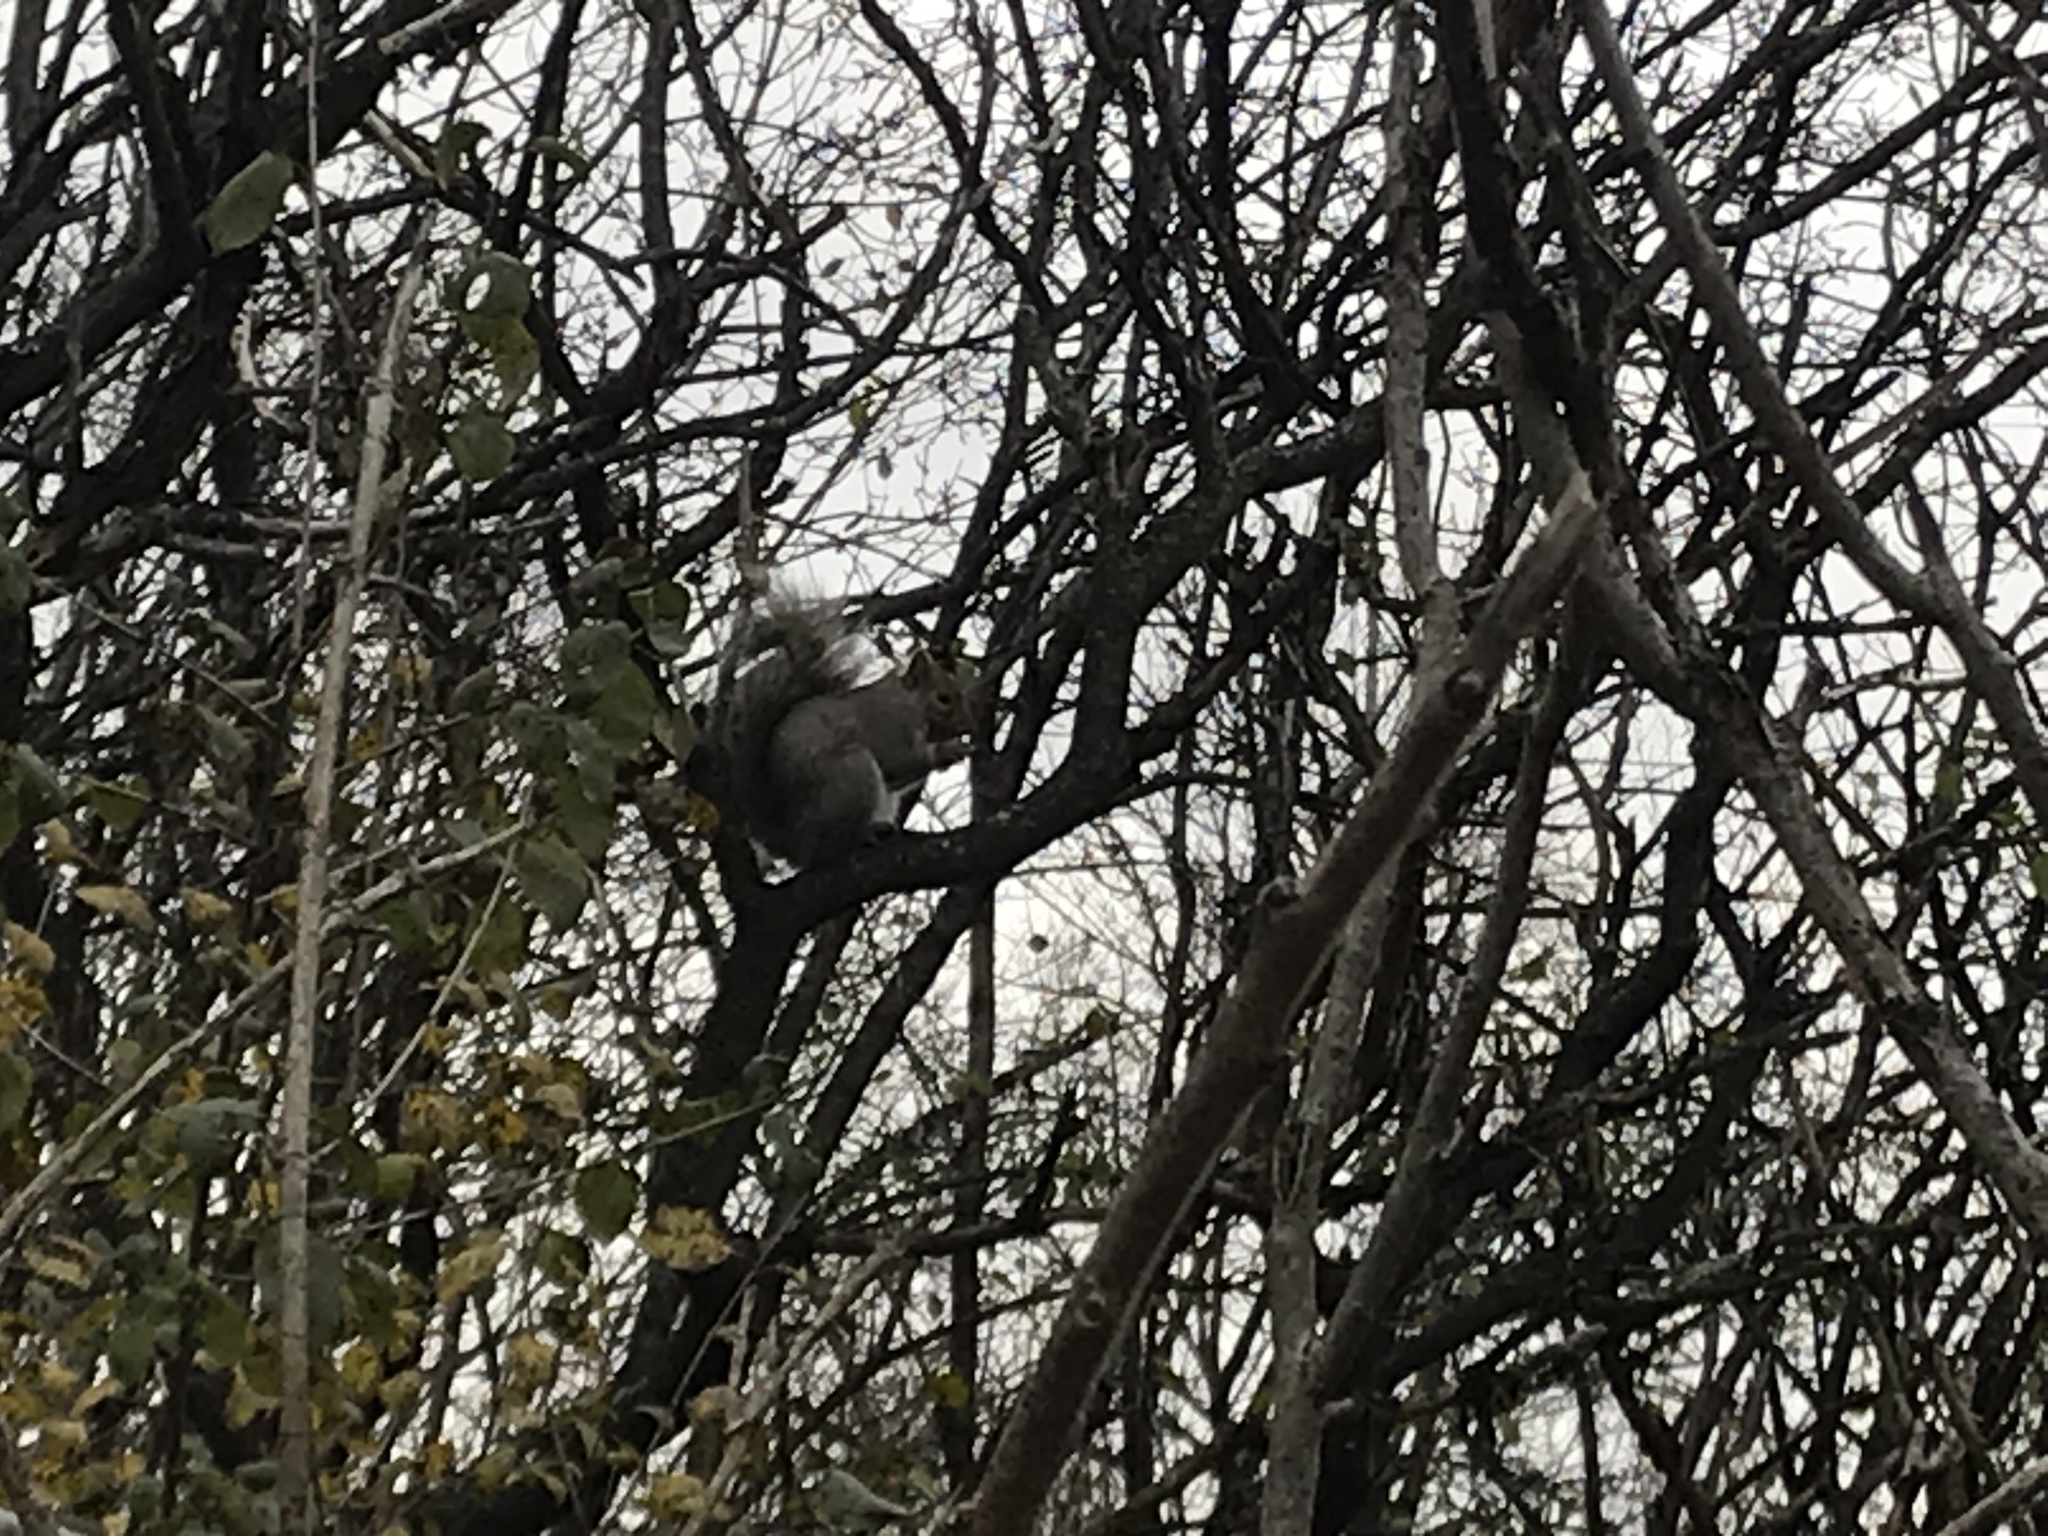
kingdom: Animalia
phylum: Chordata
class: Mammalia
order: Rodentia
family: Sciuridae
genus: Sciurus
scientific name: Sciurus carolinensis
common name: Eastern gray squirrel
